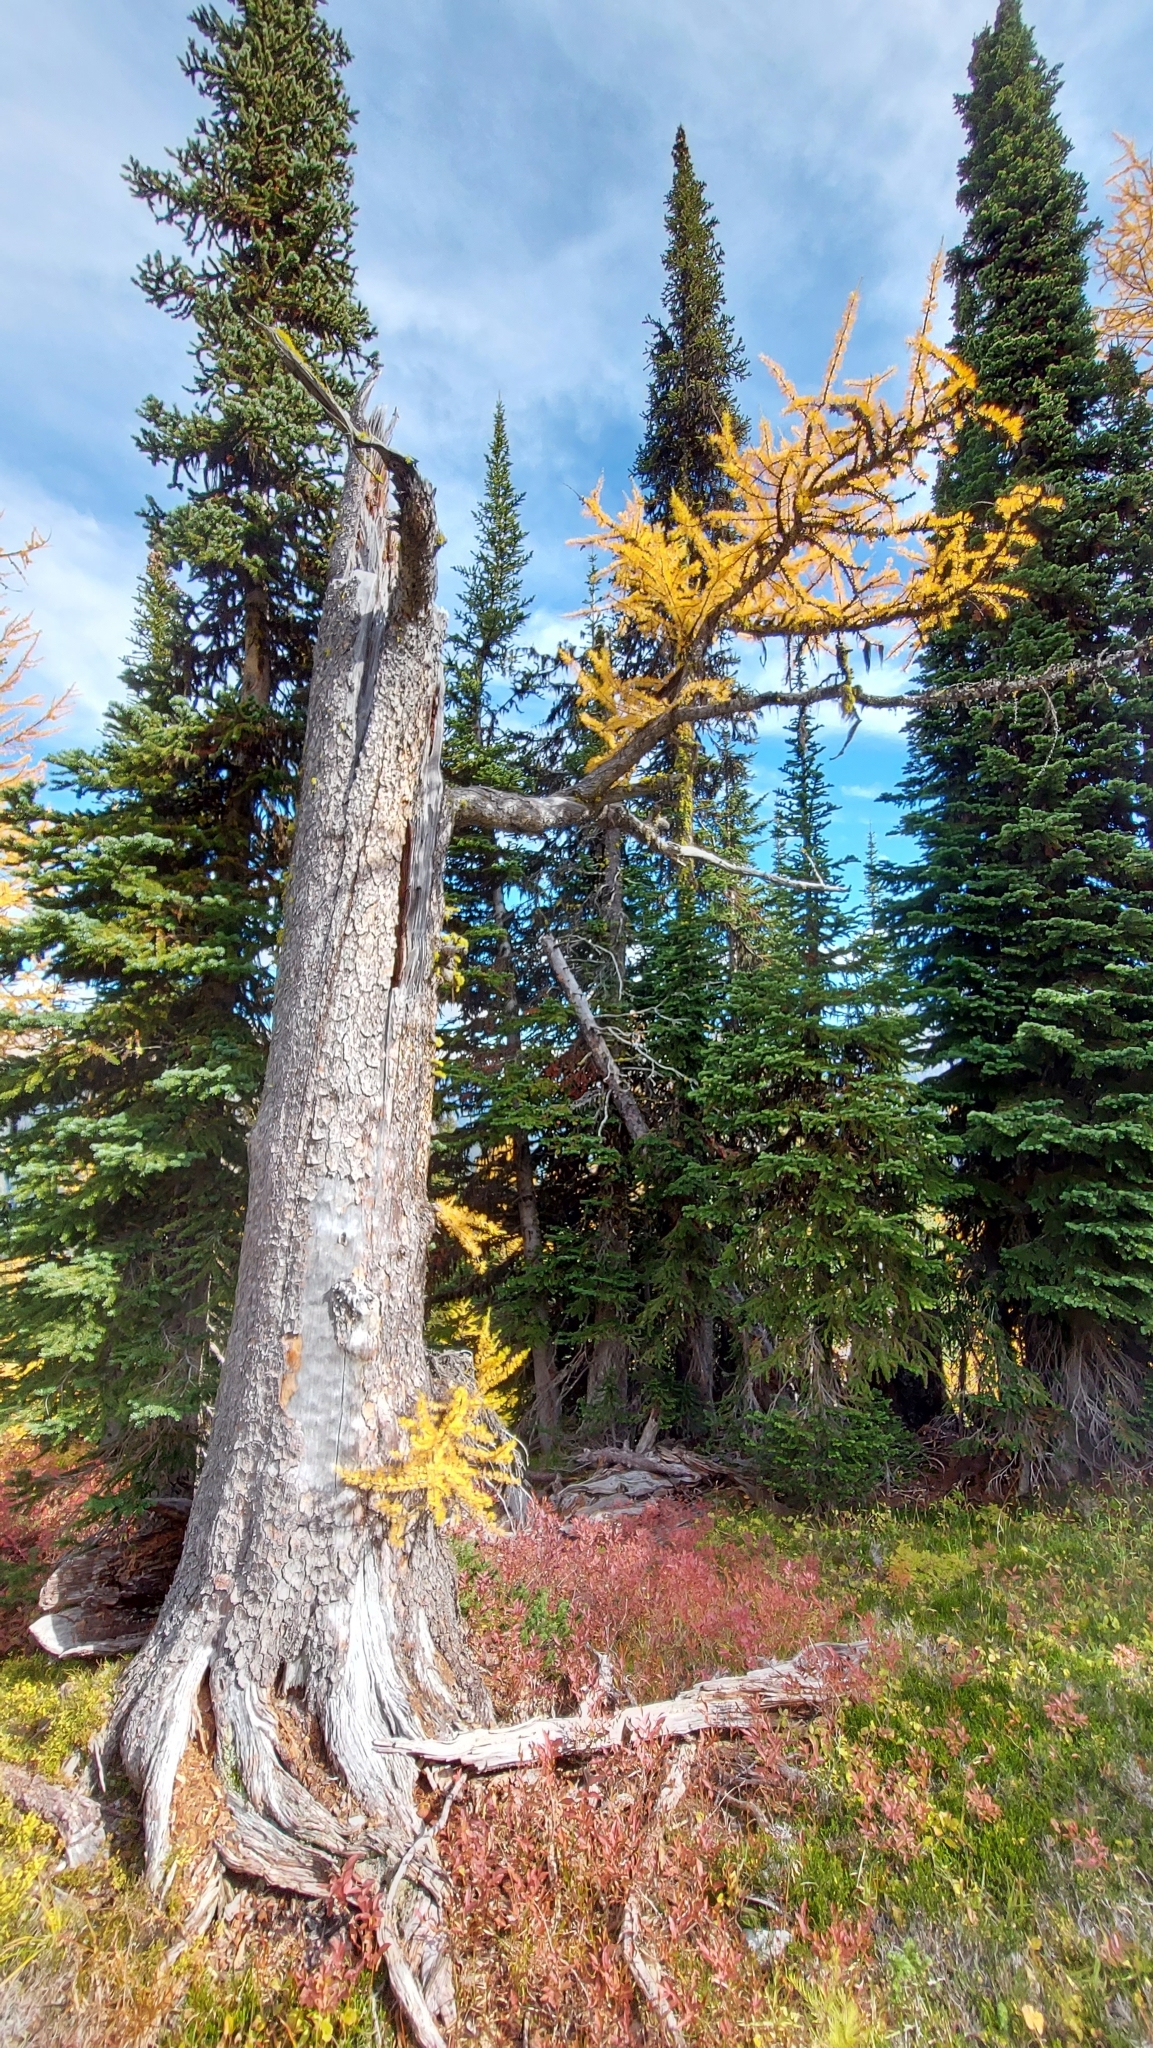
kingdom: Plantae
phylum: Tracheophyta
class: Pinopsida
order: Pinales
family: Pinaceae
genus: Larix
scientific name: Larix lyallii
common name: Alpine larch
